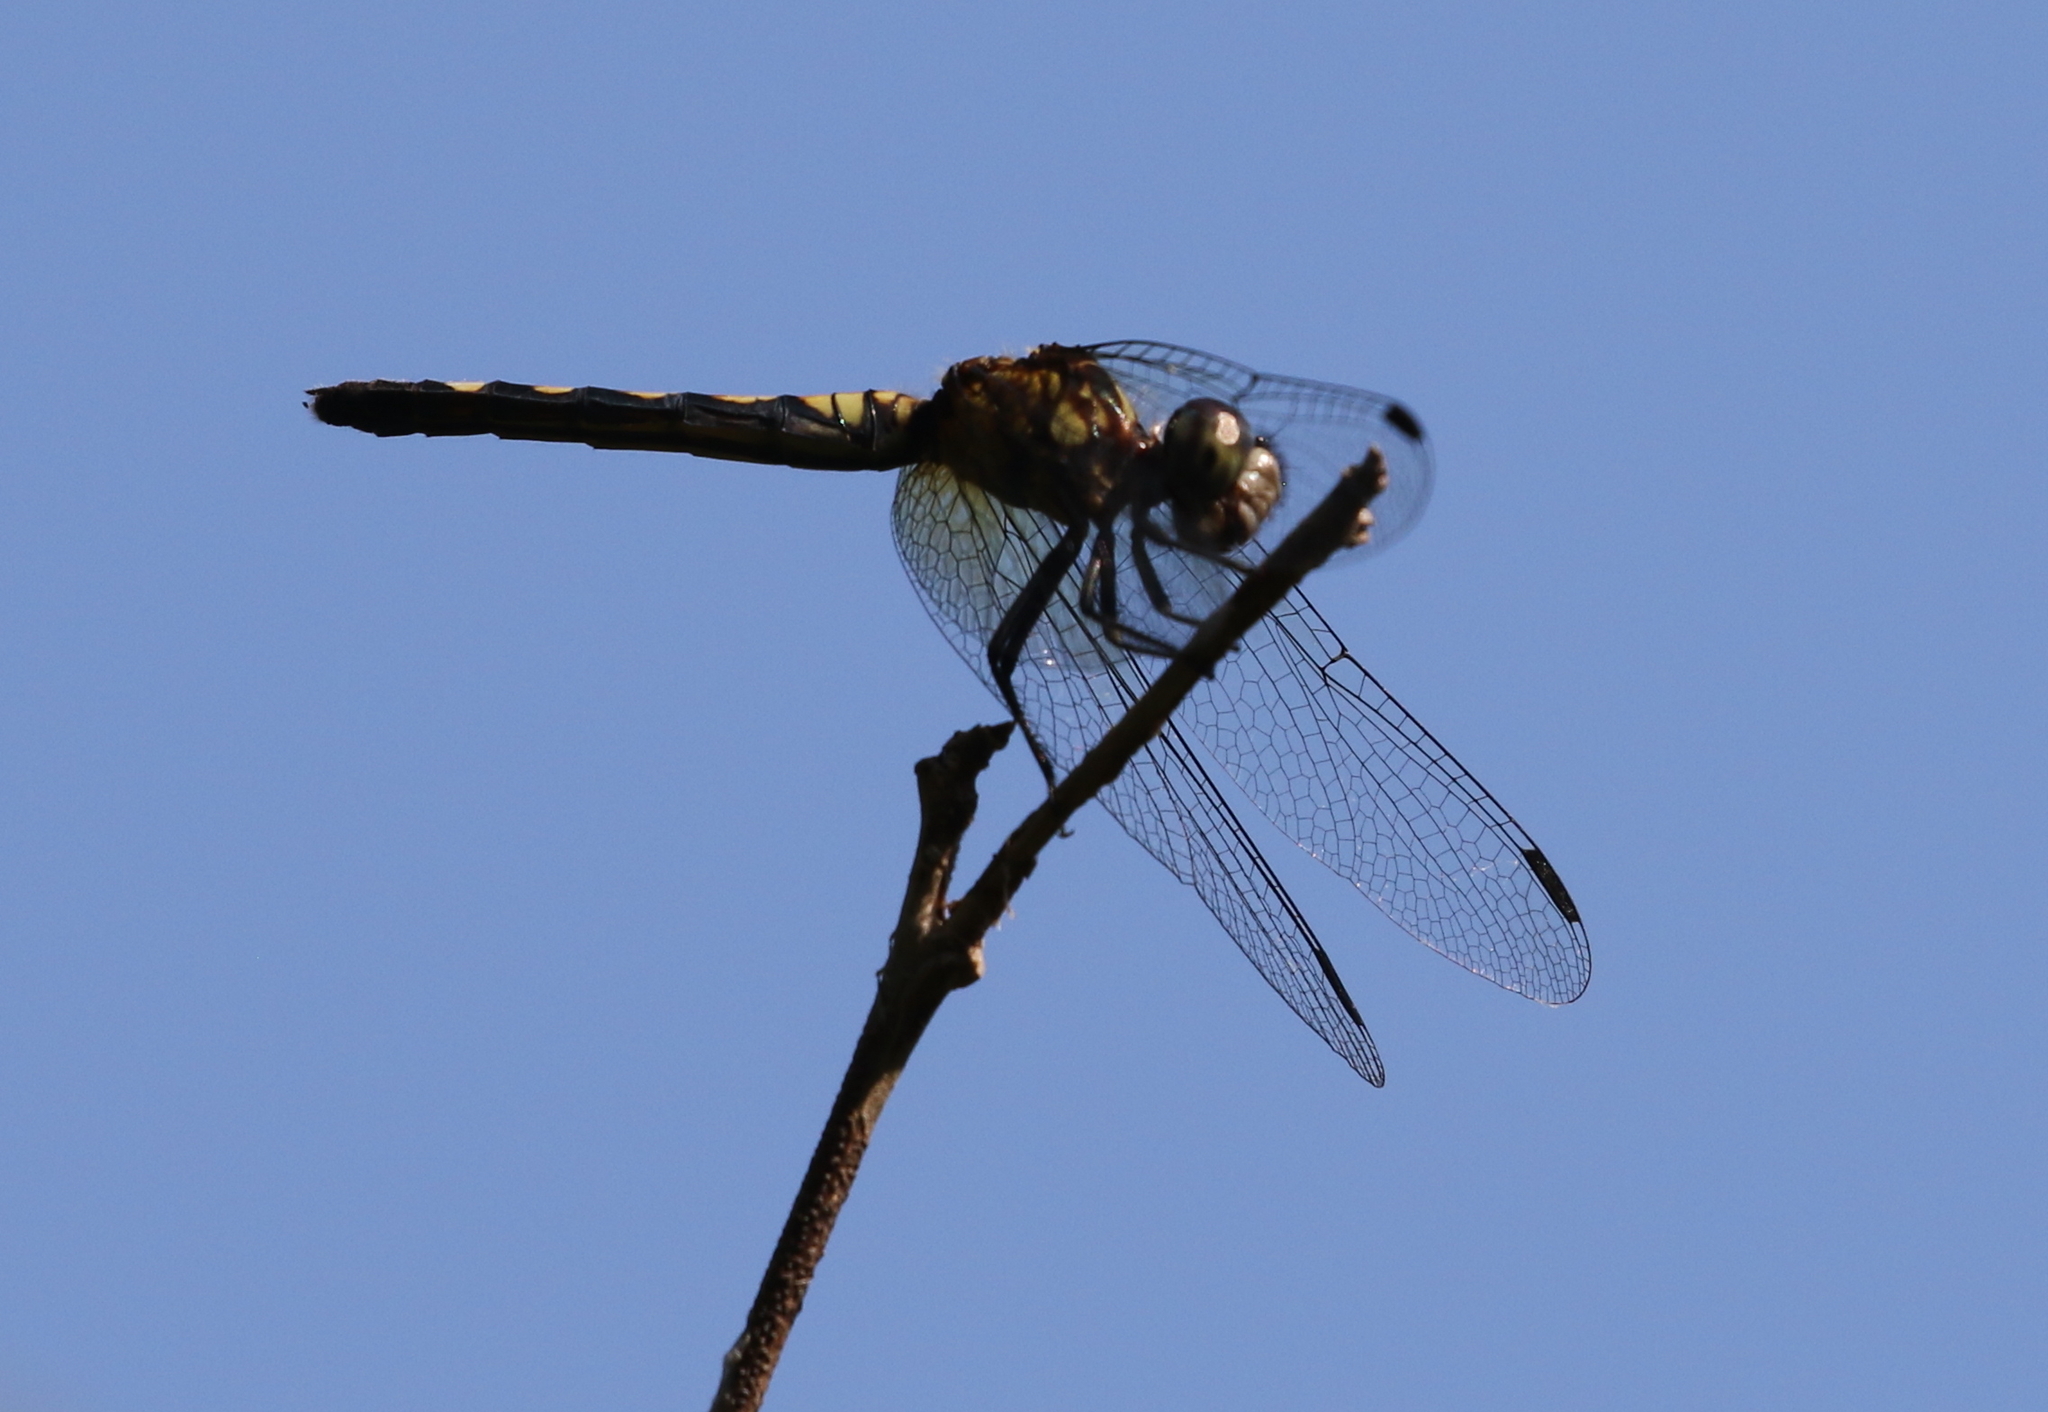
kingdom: Animalia
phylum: Arthropoda
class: Insecta
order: Odonata
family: Libellulidae
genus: Pachydiplax
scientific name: Pachydiplax longipennis
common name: Blue dasher
